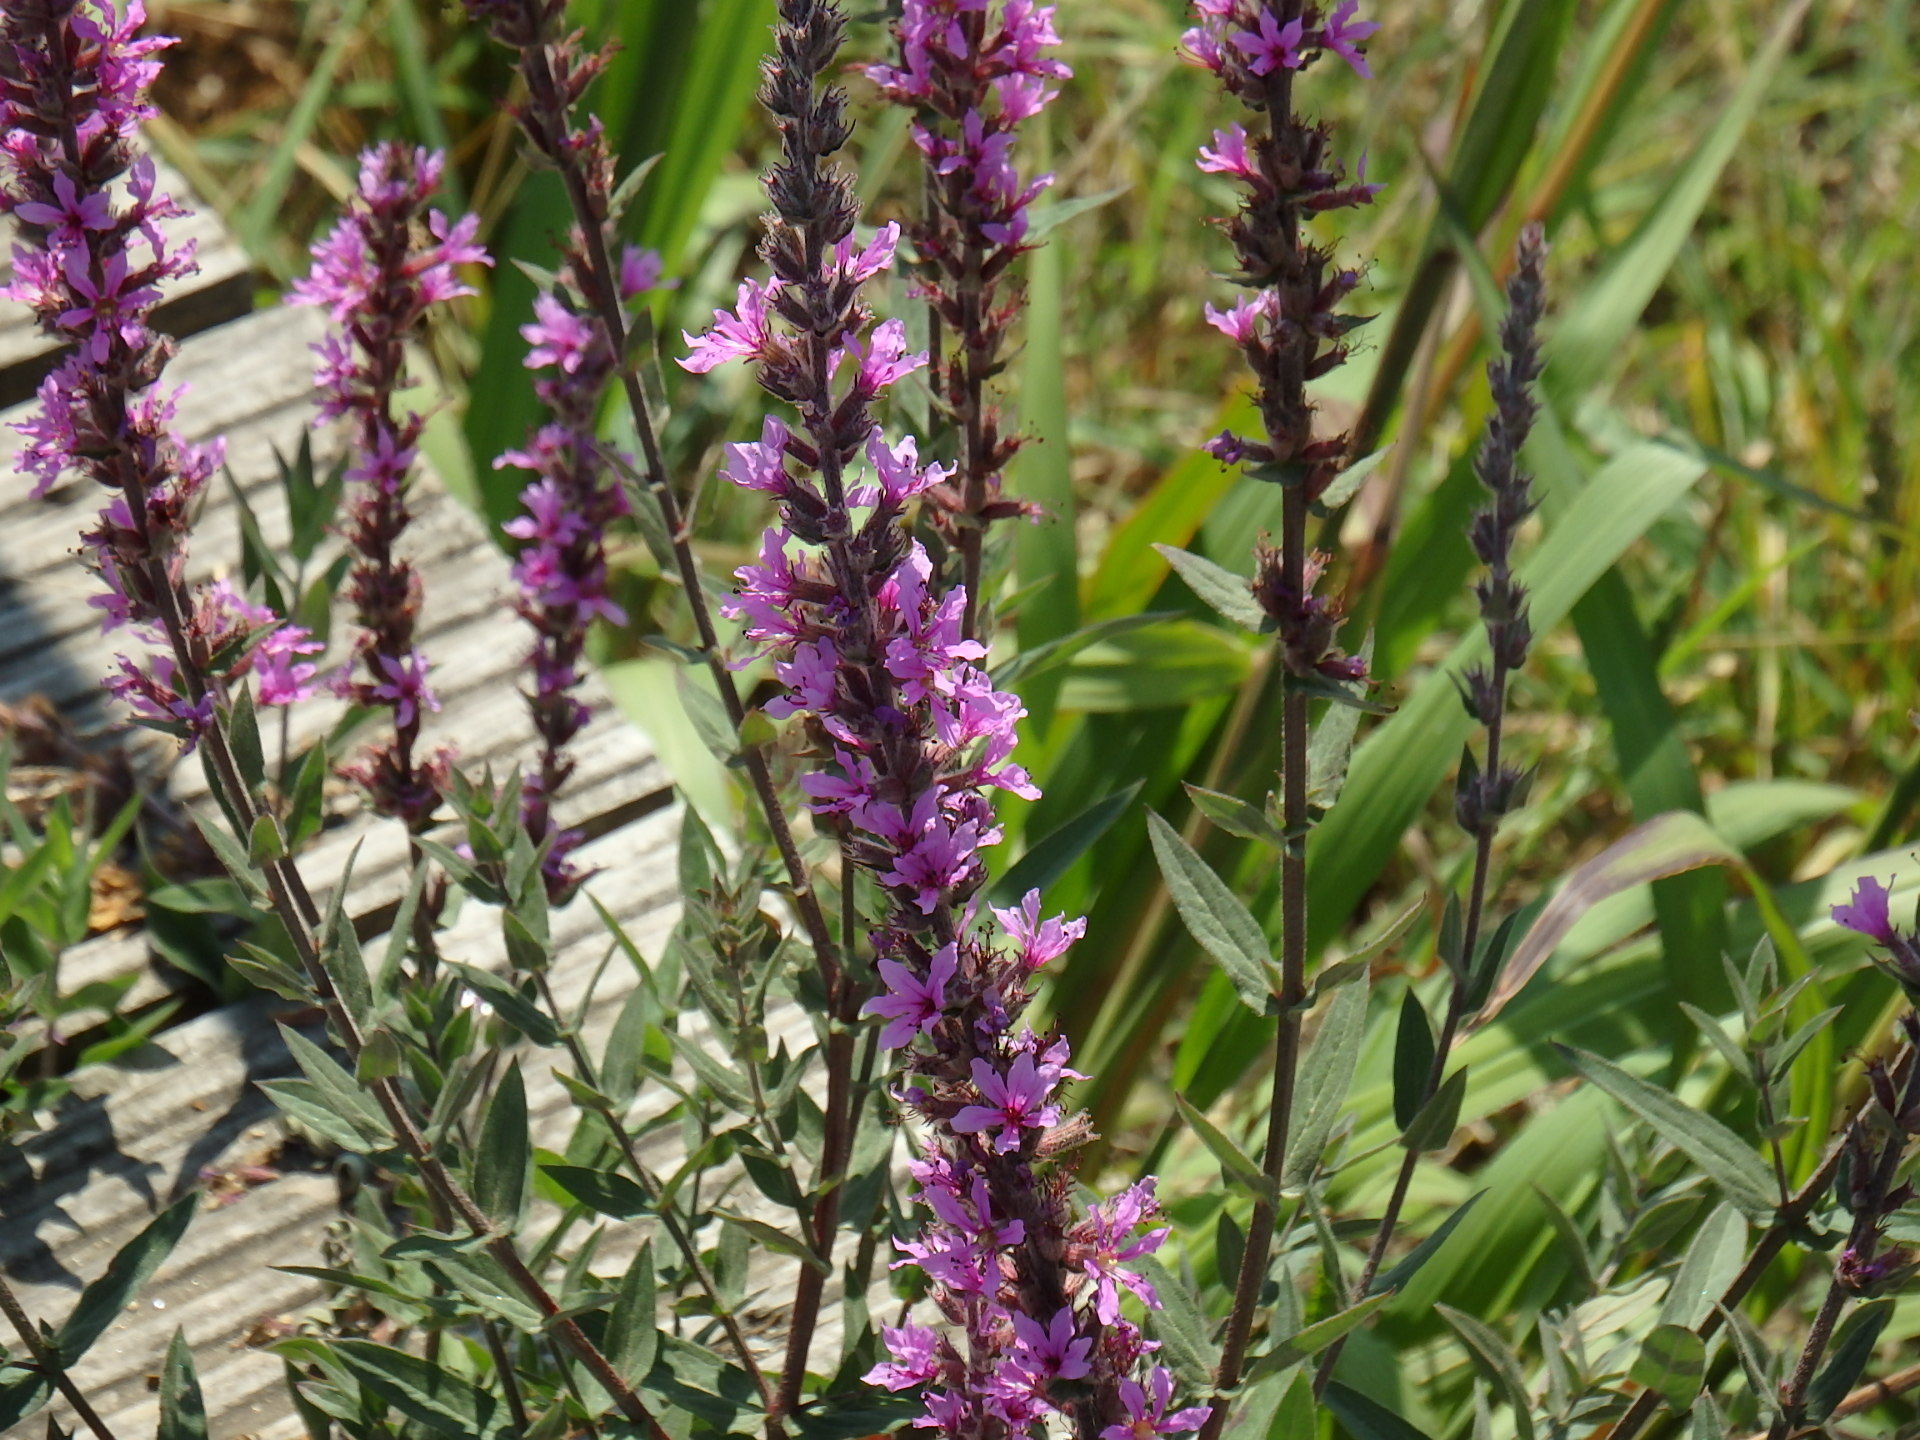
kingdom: Plantae
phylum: Tracheophyta
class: Magnoliopsida
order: Myrtales
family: Lythraceae
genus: Lythrum
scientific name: Lythrum salicaria
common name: Purple loosestrife
